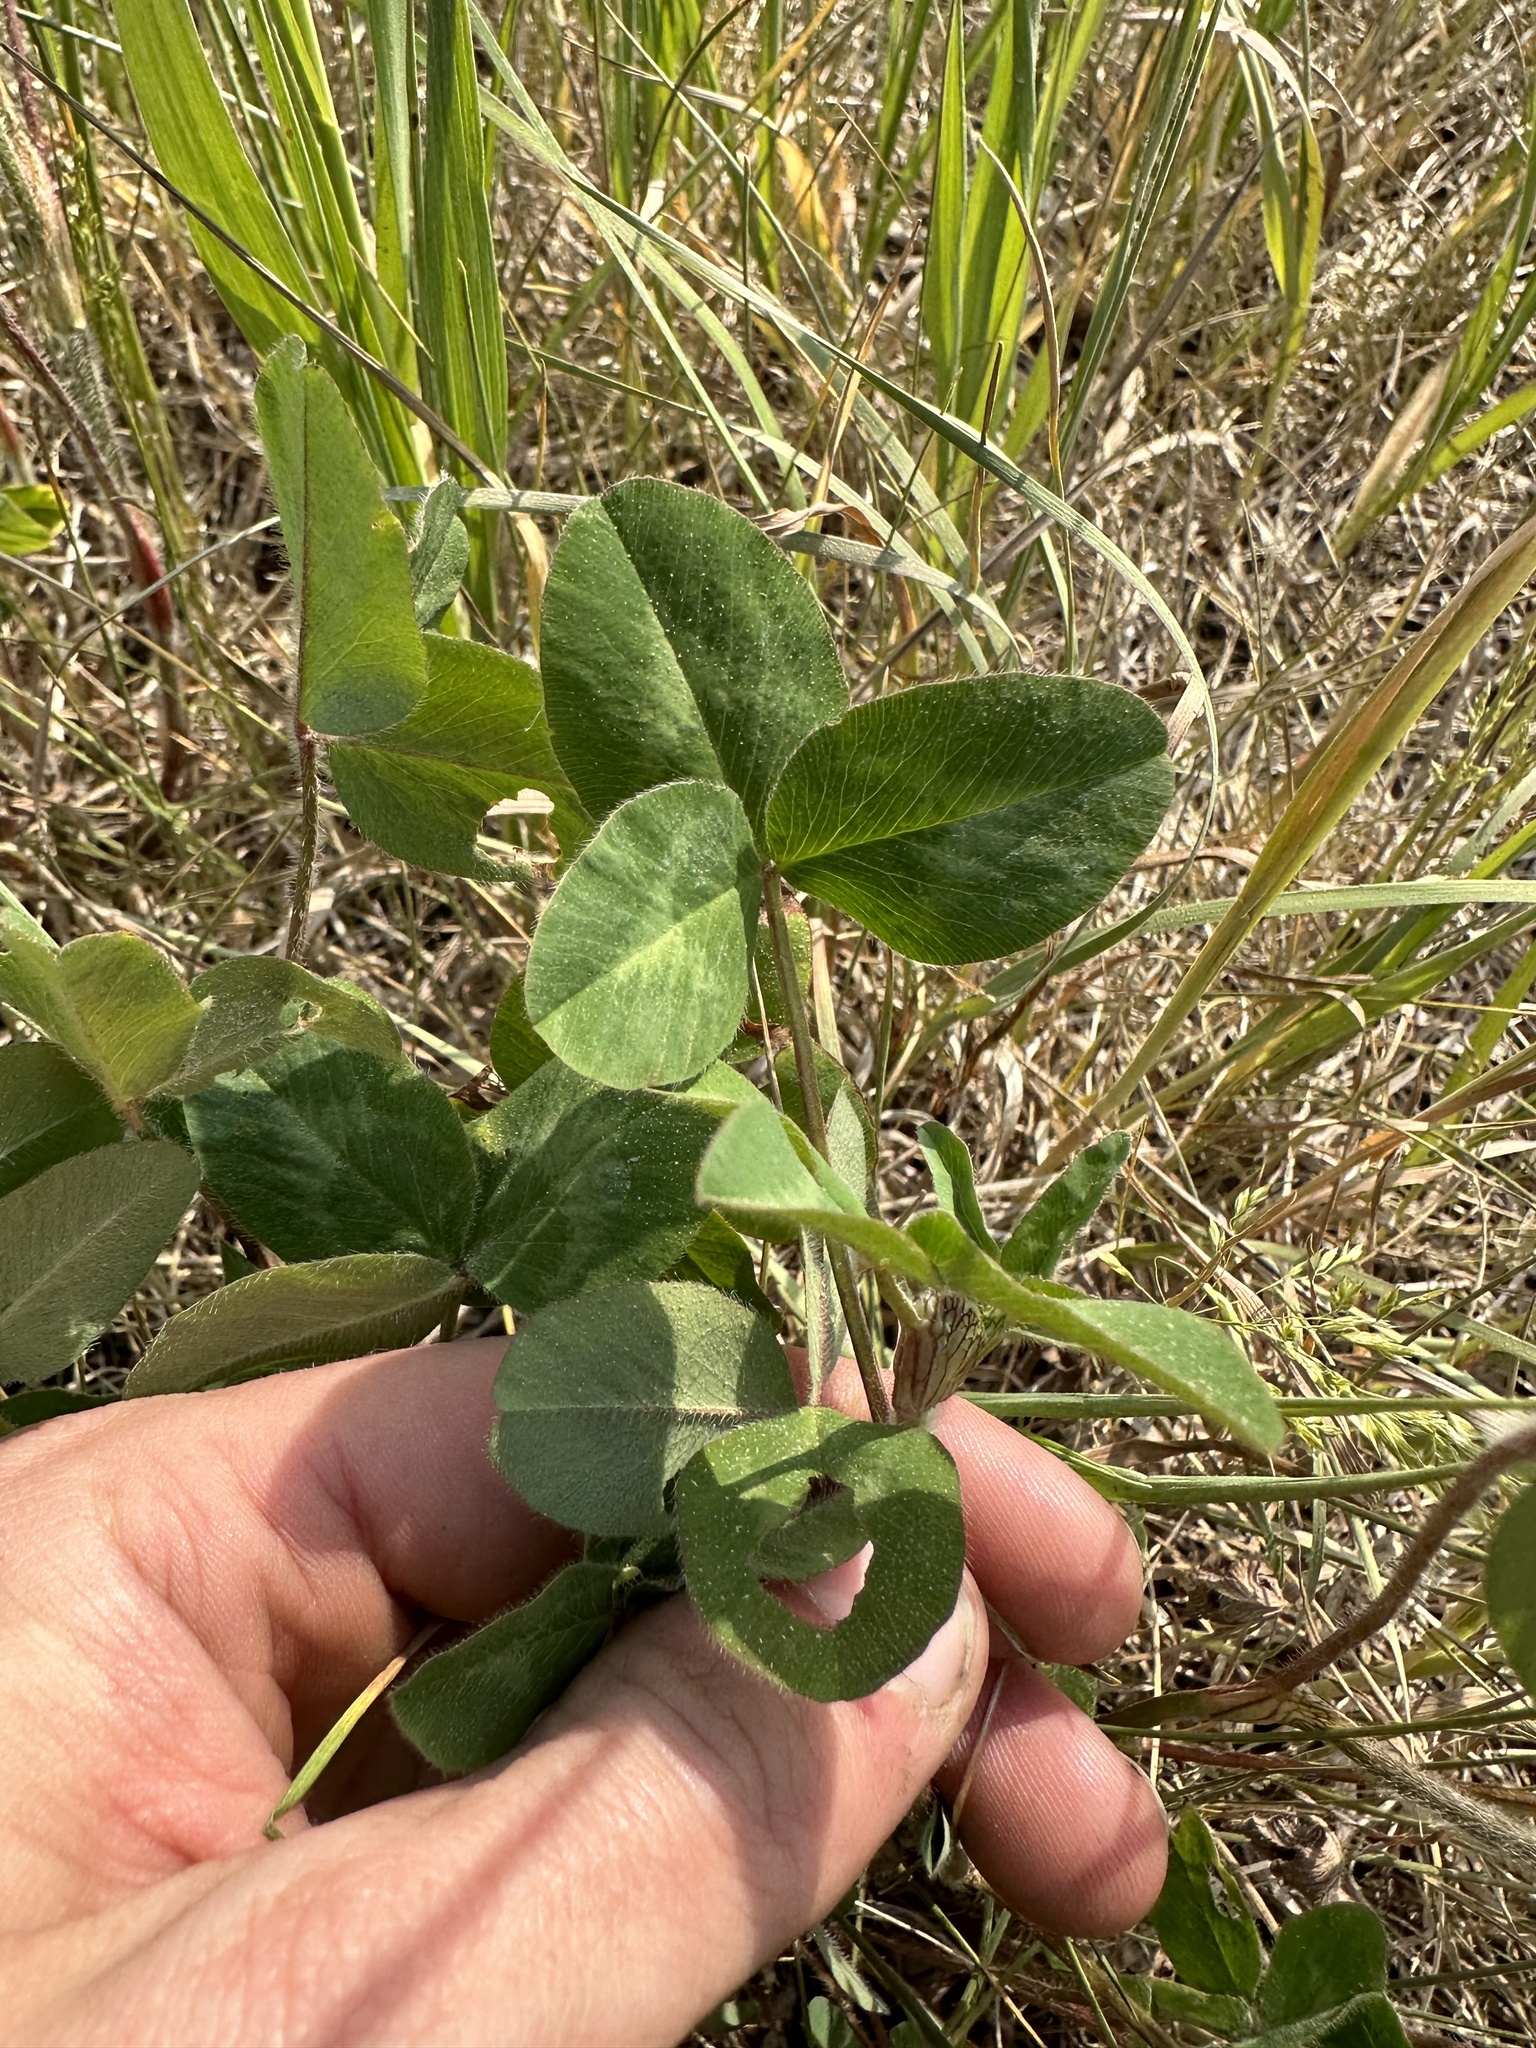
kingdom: Plantae
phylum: Tracheophyta
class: Magnoliopsida
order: Fabales
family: Fabaceae
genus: Trifolium
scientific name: Trifolium pratense
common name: Red clover
